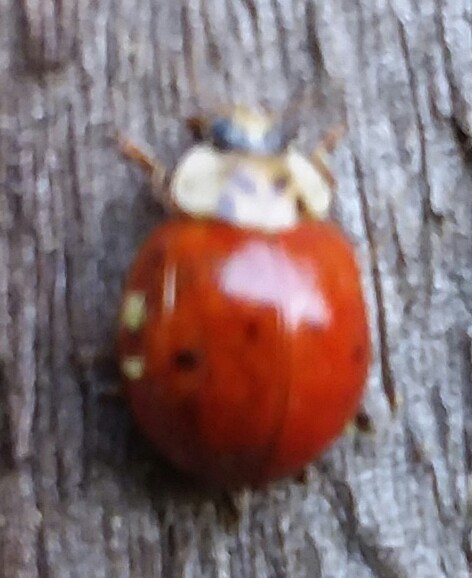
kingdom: Animalia
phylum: Arthropoda
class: Insecta
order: Coleoptera
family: Coccinellidae
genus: Harmonia
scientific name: Harmonia axyridis
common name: Harlequin ladybird
